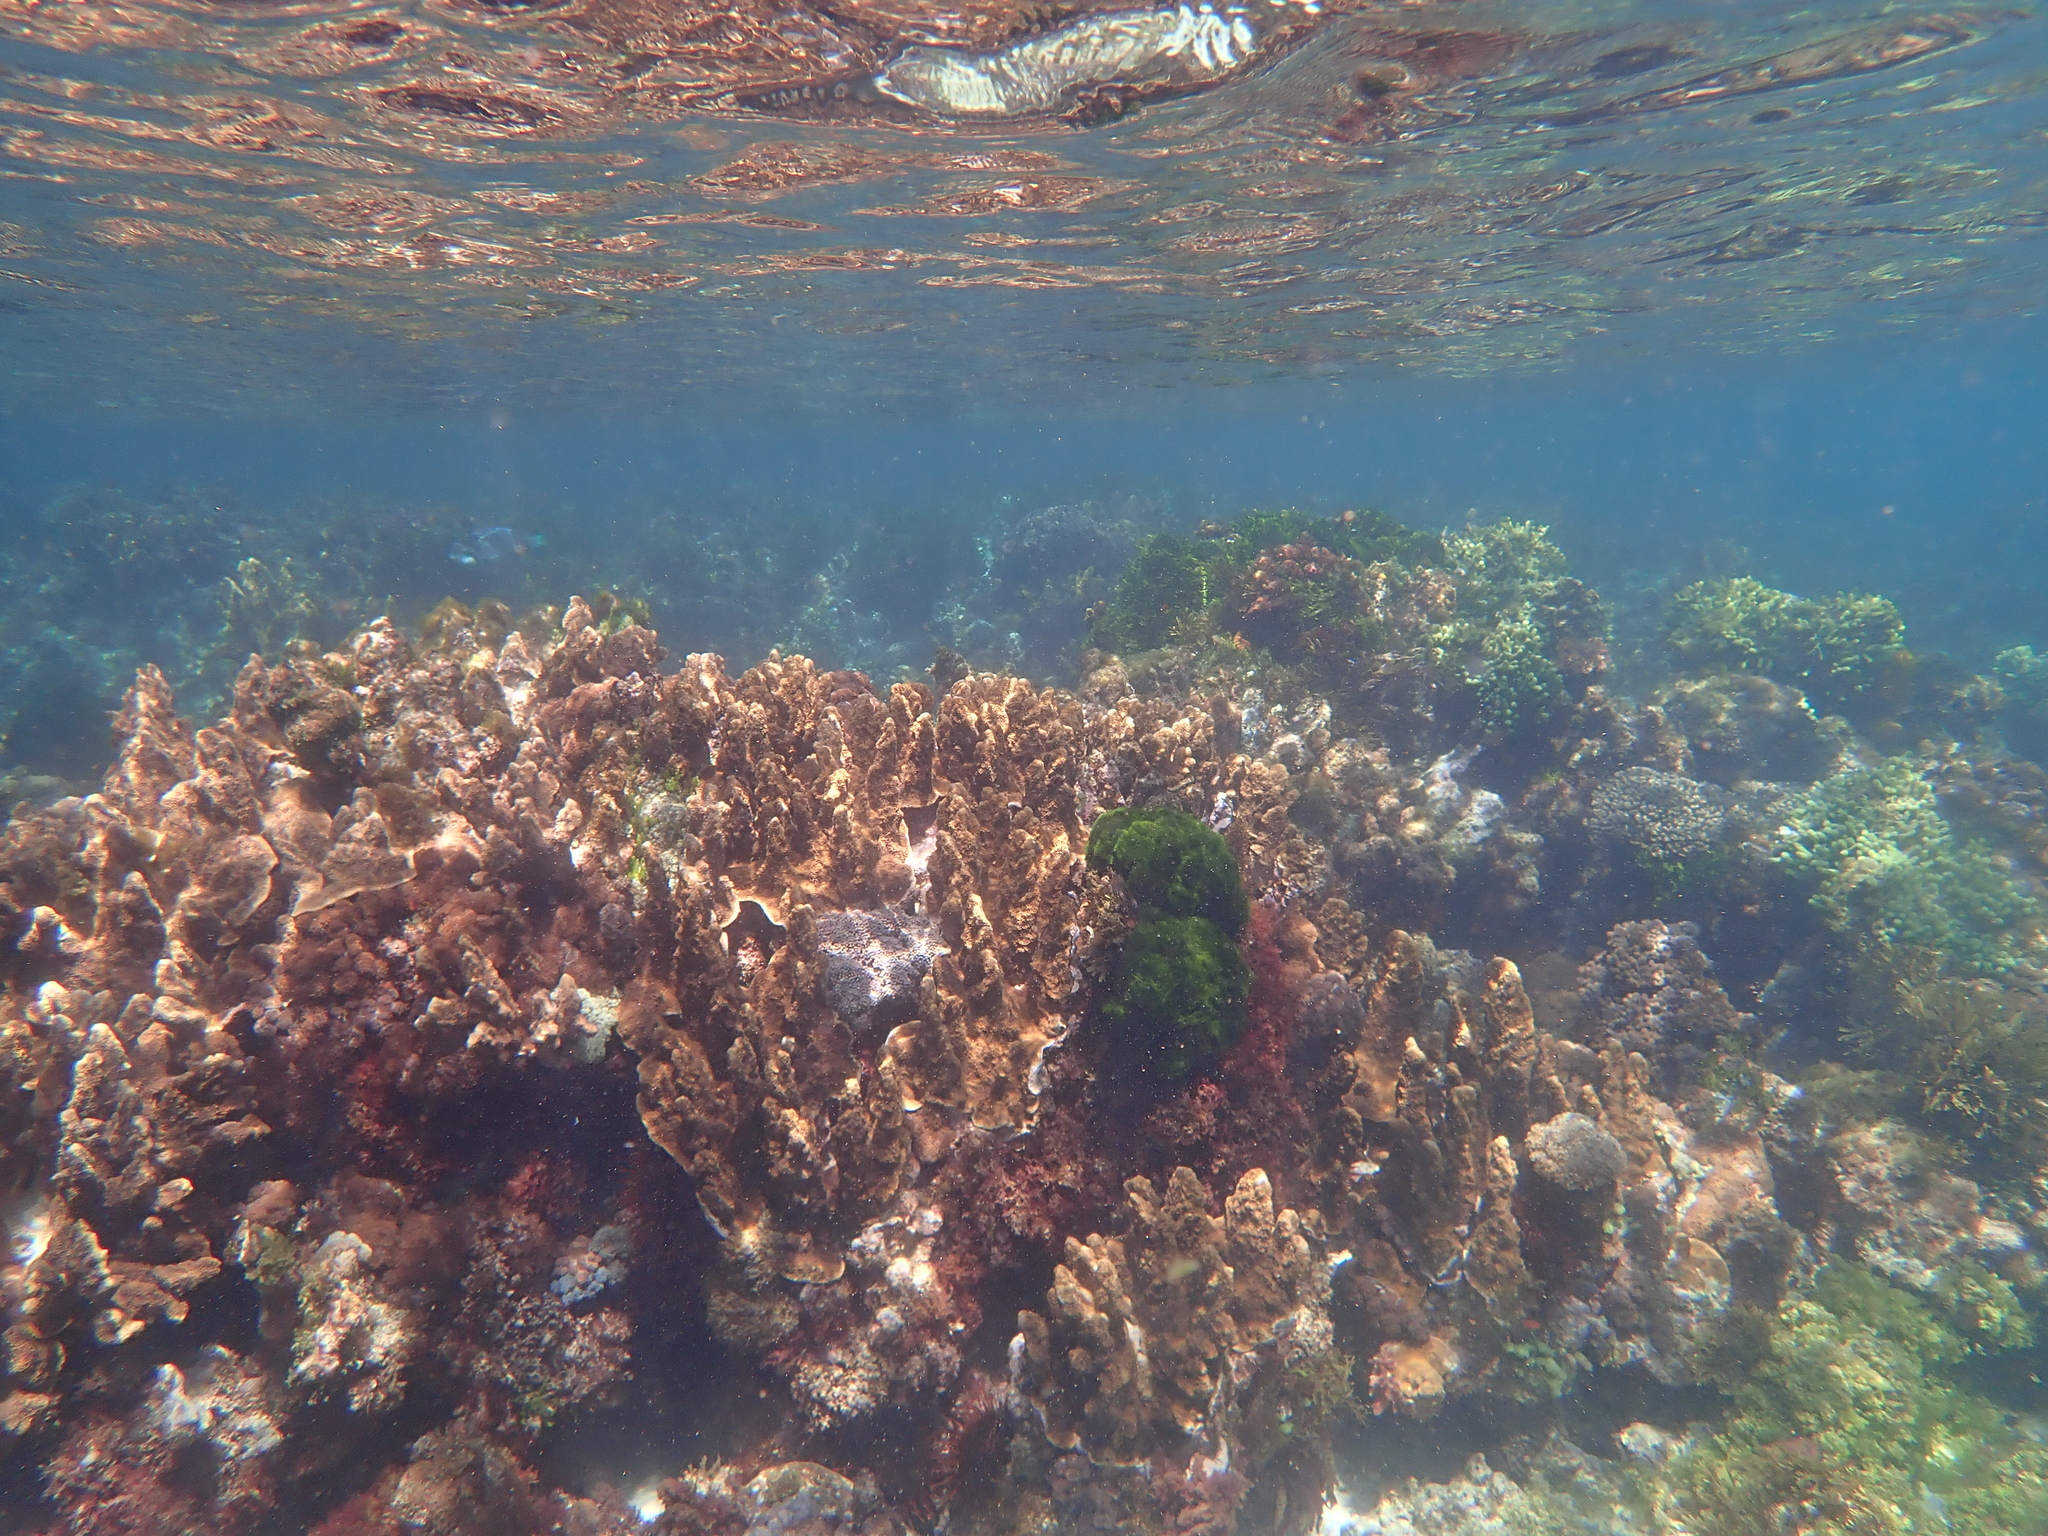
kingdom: Animalia
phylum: Cnidaria
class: Anthozoa
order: Scleractinia
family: Acroporidae
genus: Isopora
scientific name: Isopora elizabethensis
